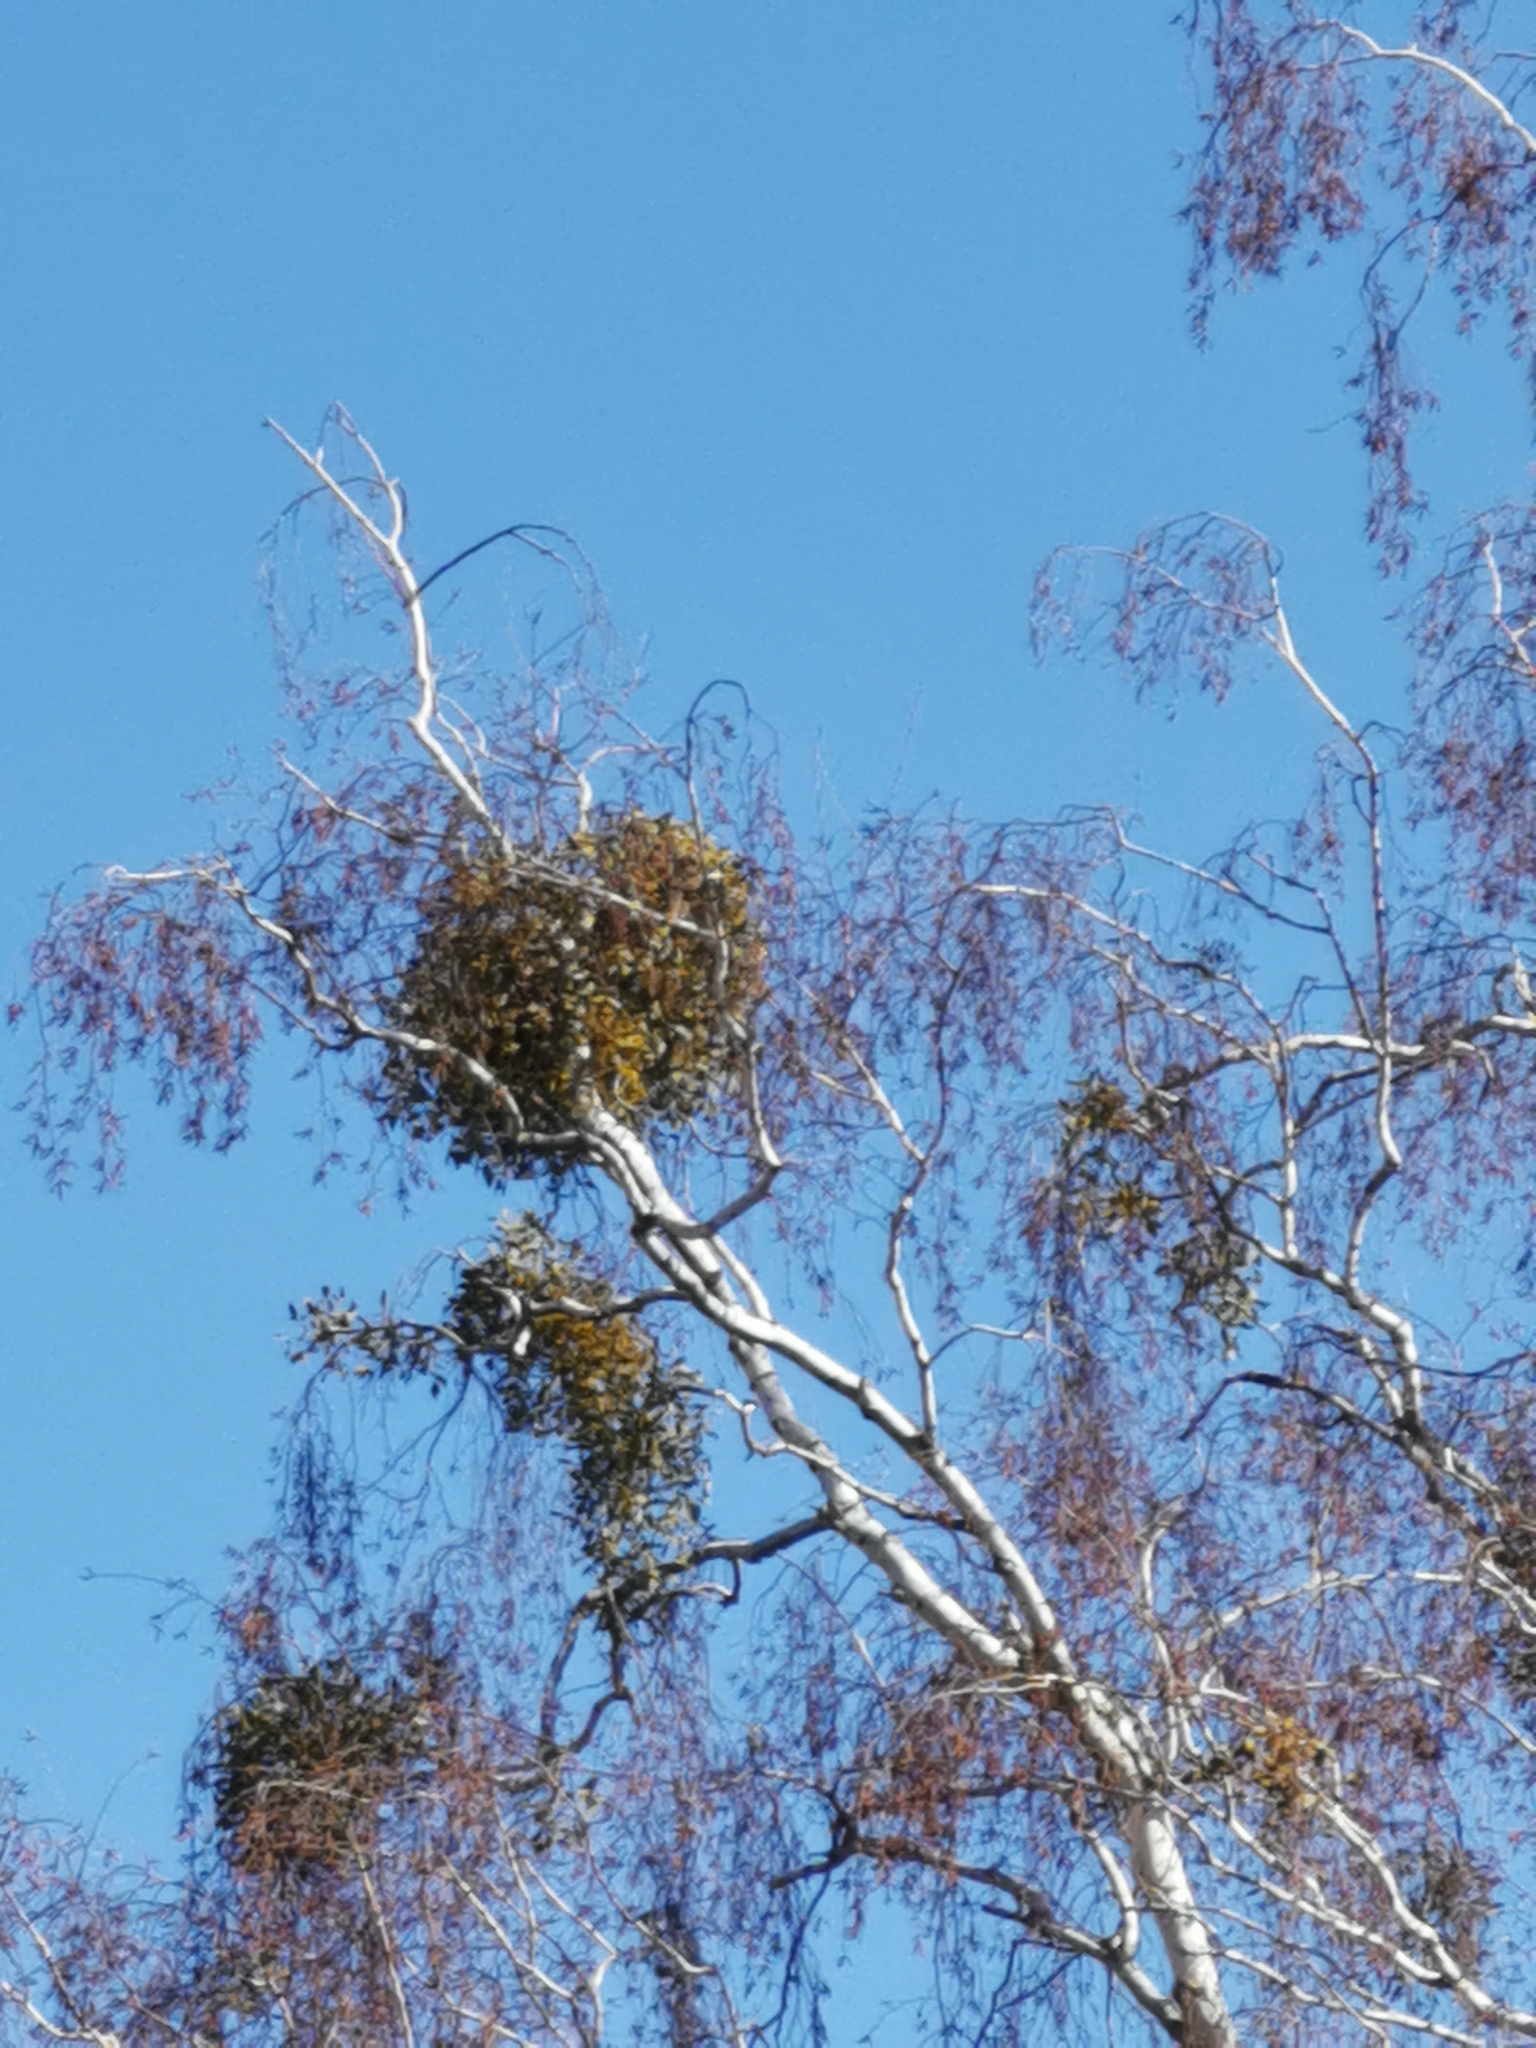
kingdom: Plantae
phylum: Tracheophyta
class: Magnoliopsida
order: Santalales
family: Viscaceae
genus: Viscum
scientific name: Viscum album
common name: Mistletoe
